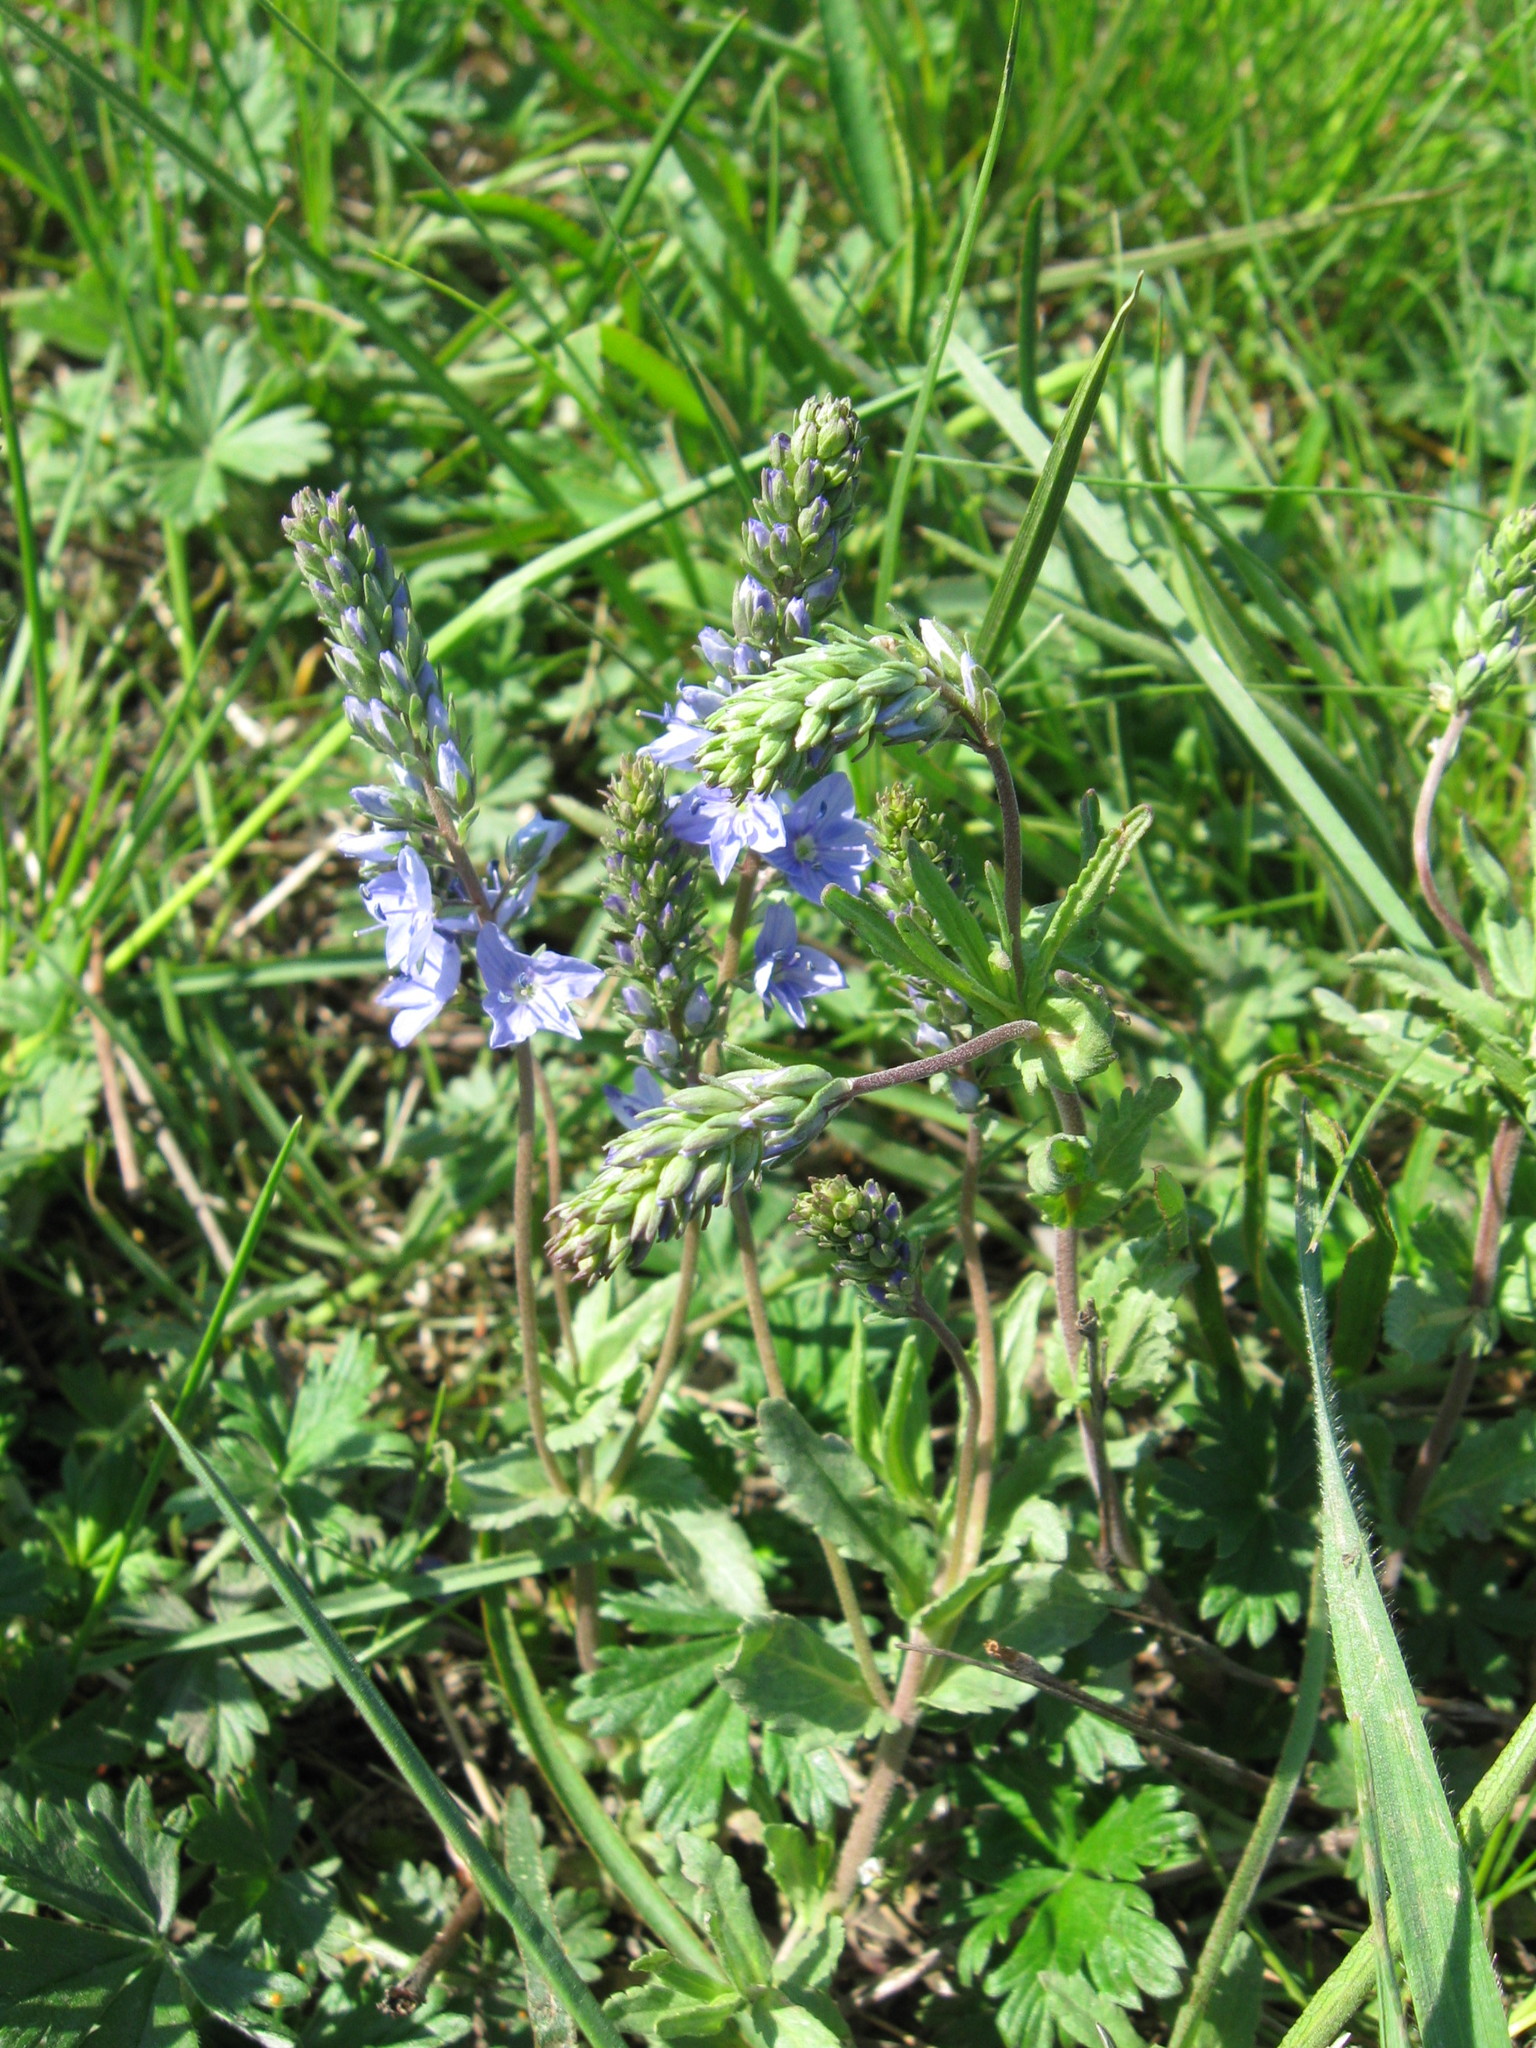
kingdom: Plantae
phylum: Tracheophyta
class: Magnoliopsida
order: Lamiales
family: Plantaginaceae
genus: Veronica
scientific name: Veronica prostrata
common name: Prostrate speedwell
